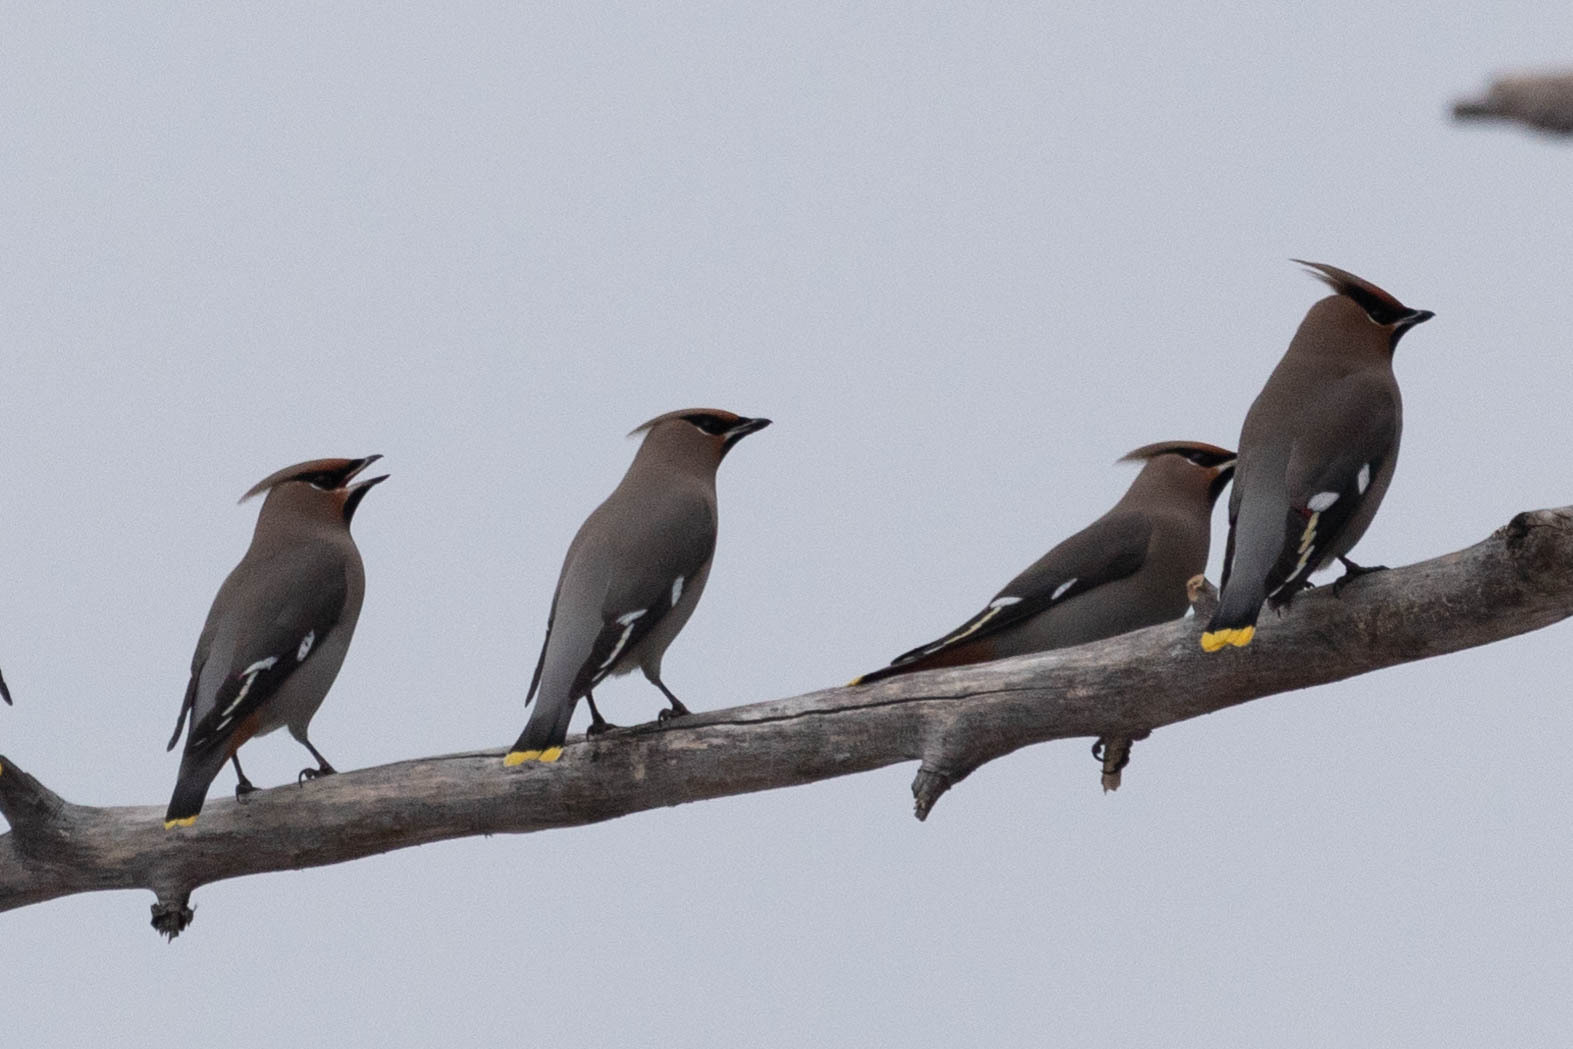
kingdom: Animalia
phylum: Chordata
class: Aves
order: Passeriformes
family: Bombycillidae
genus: Bombycilla
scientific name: Bombycilla garrulus
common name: Bohemian waxwing
